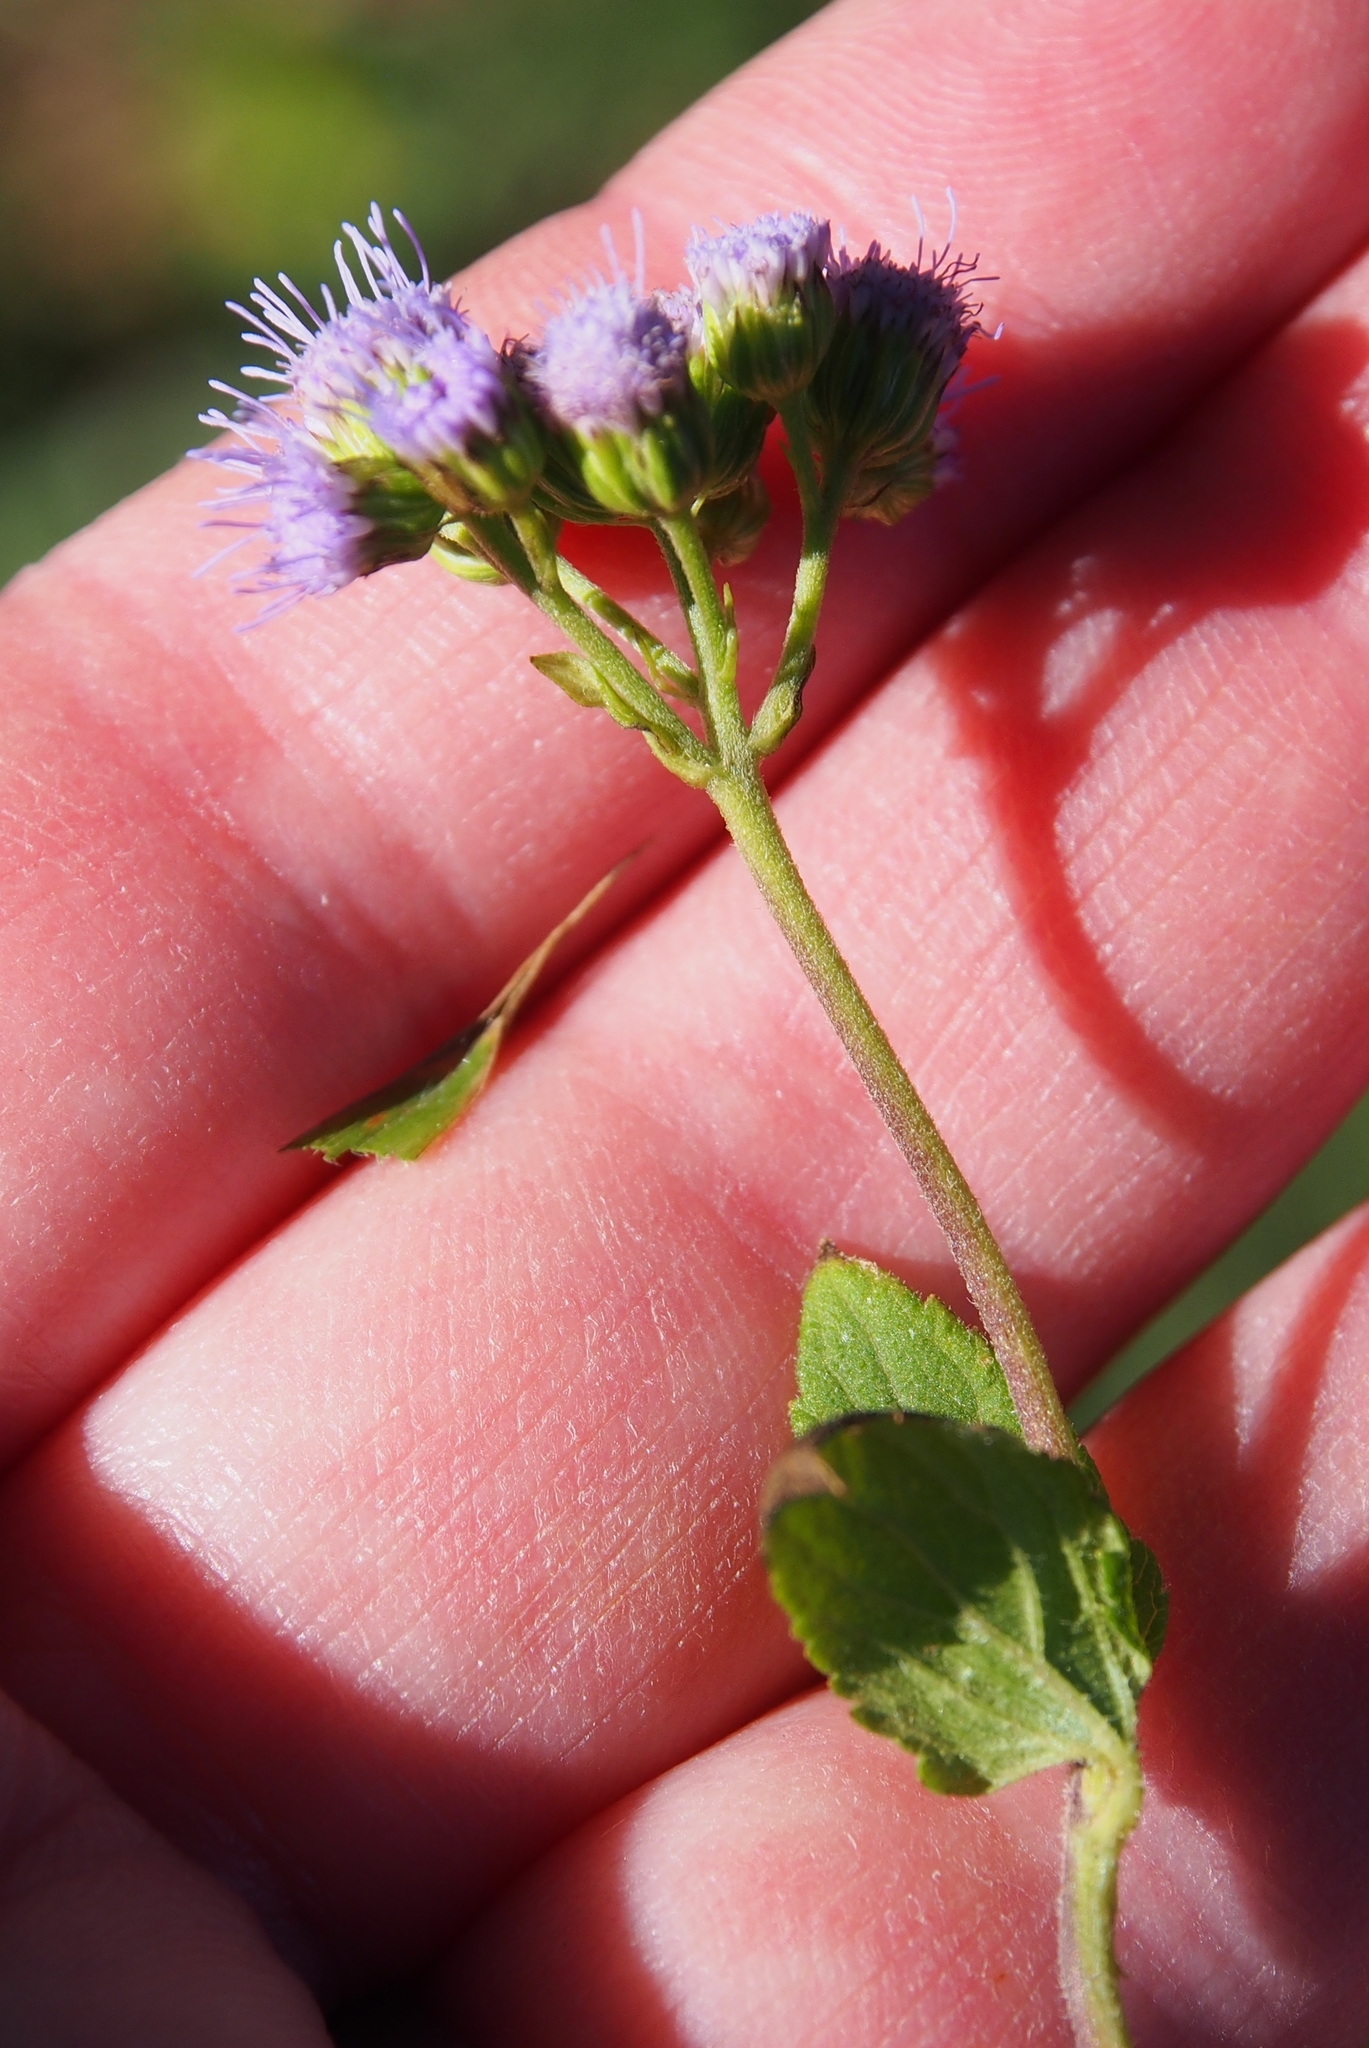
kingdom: Plantae
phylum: Tracheophyta
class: Magnoliopsida
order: Asterales
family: Asteraceae
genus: Ageratum
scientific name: Ageratum conyzoides
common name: Tropical whiteweed
